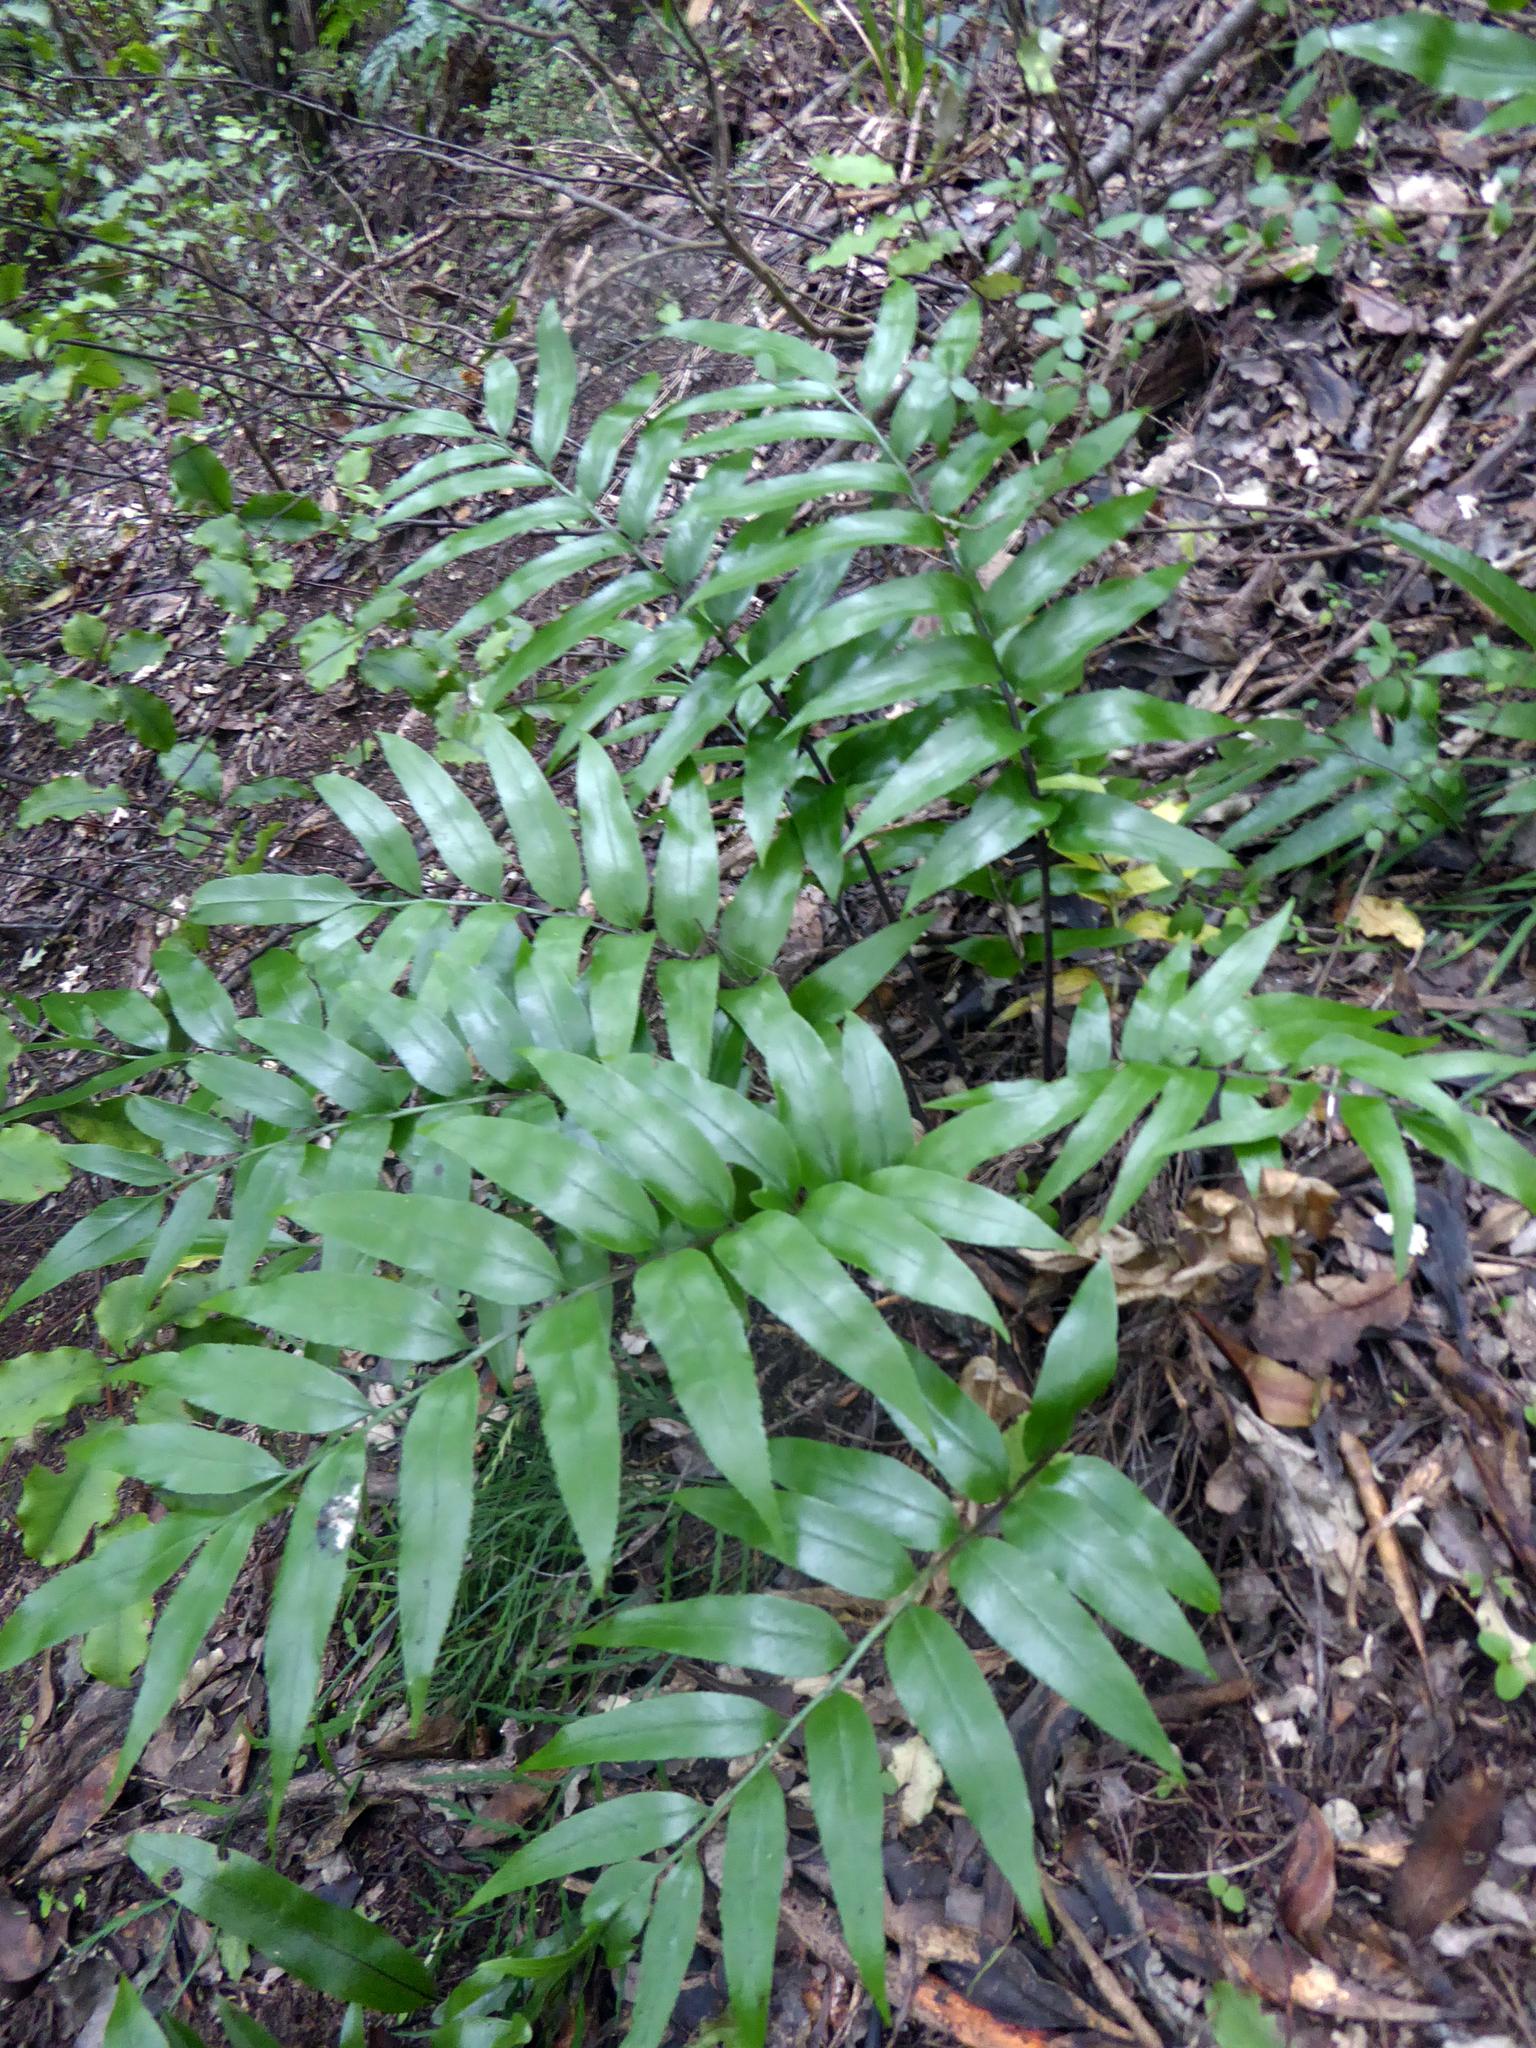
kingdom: Plantae
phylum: Tracheophyta
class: Polypodiopsida
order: Polypodiales
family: Aspleniaceae
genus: Asplenium
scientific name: Asplenium oblongifolium
